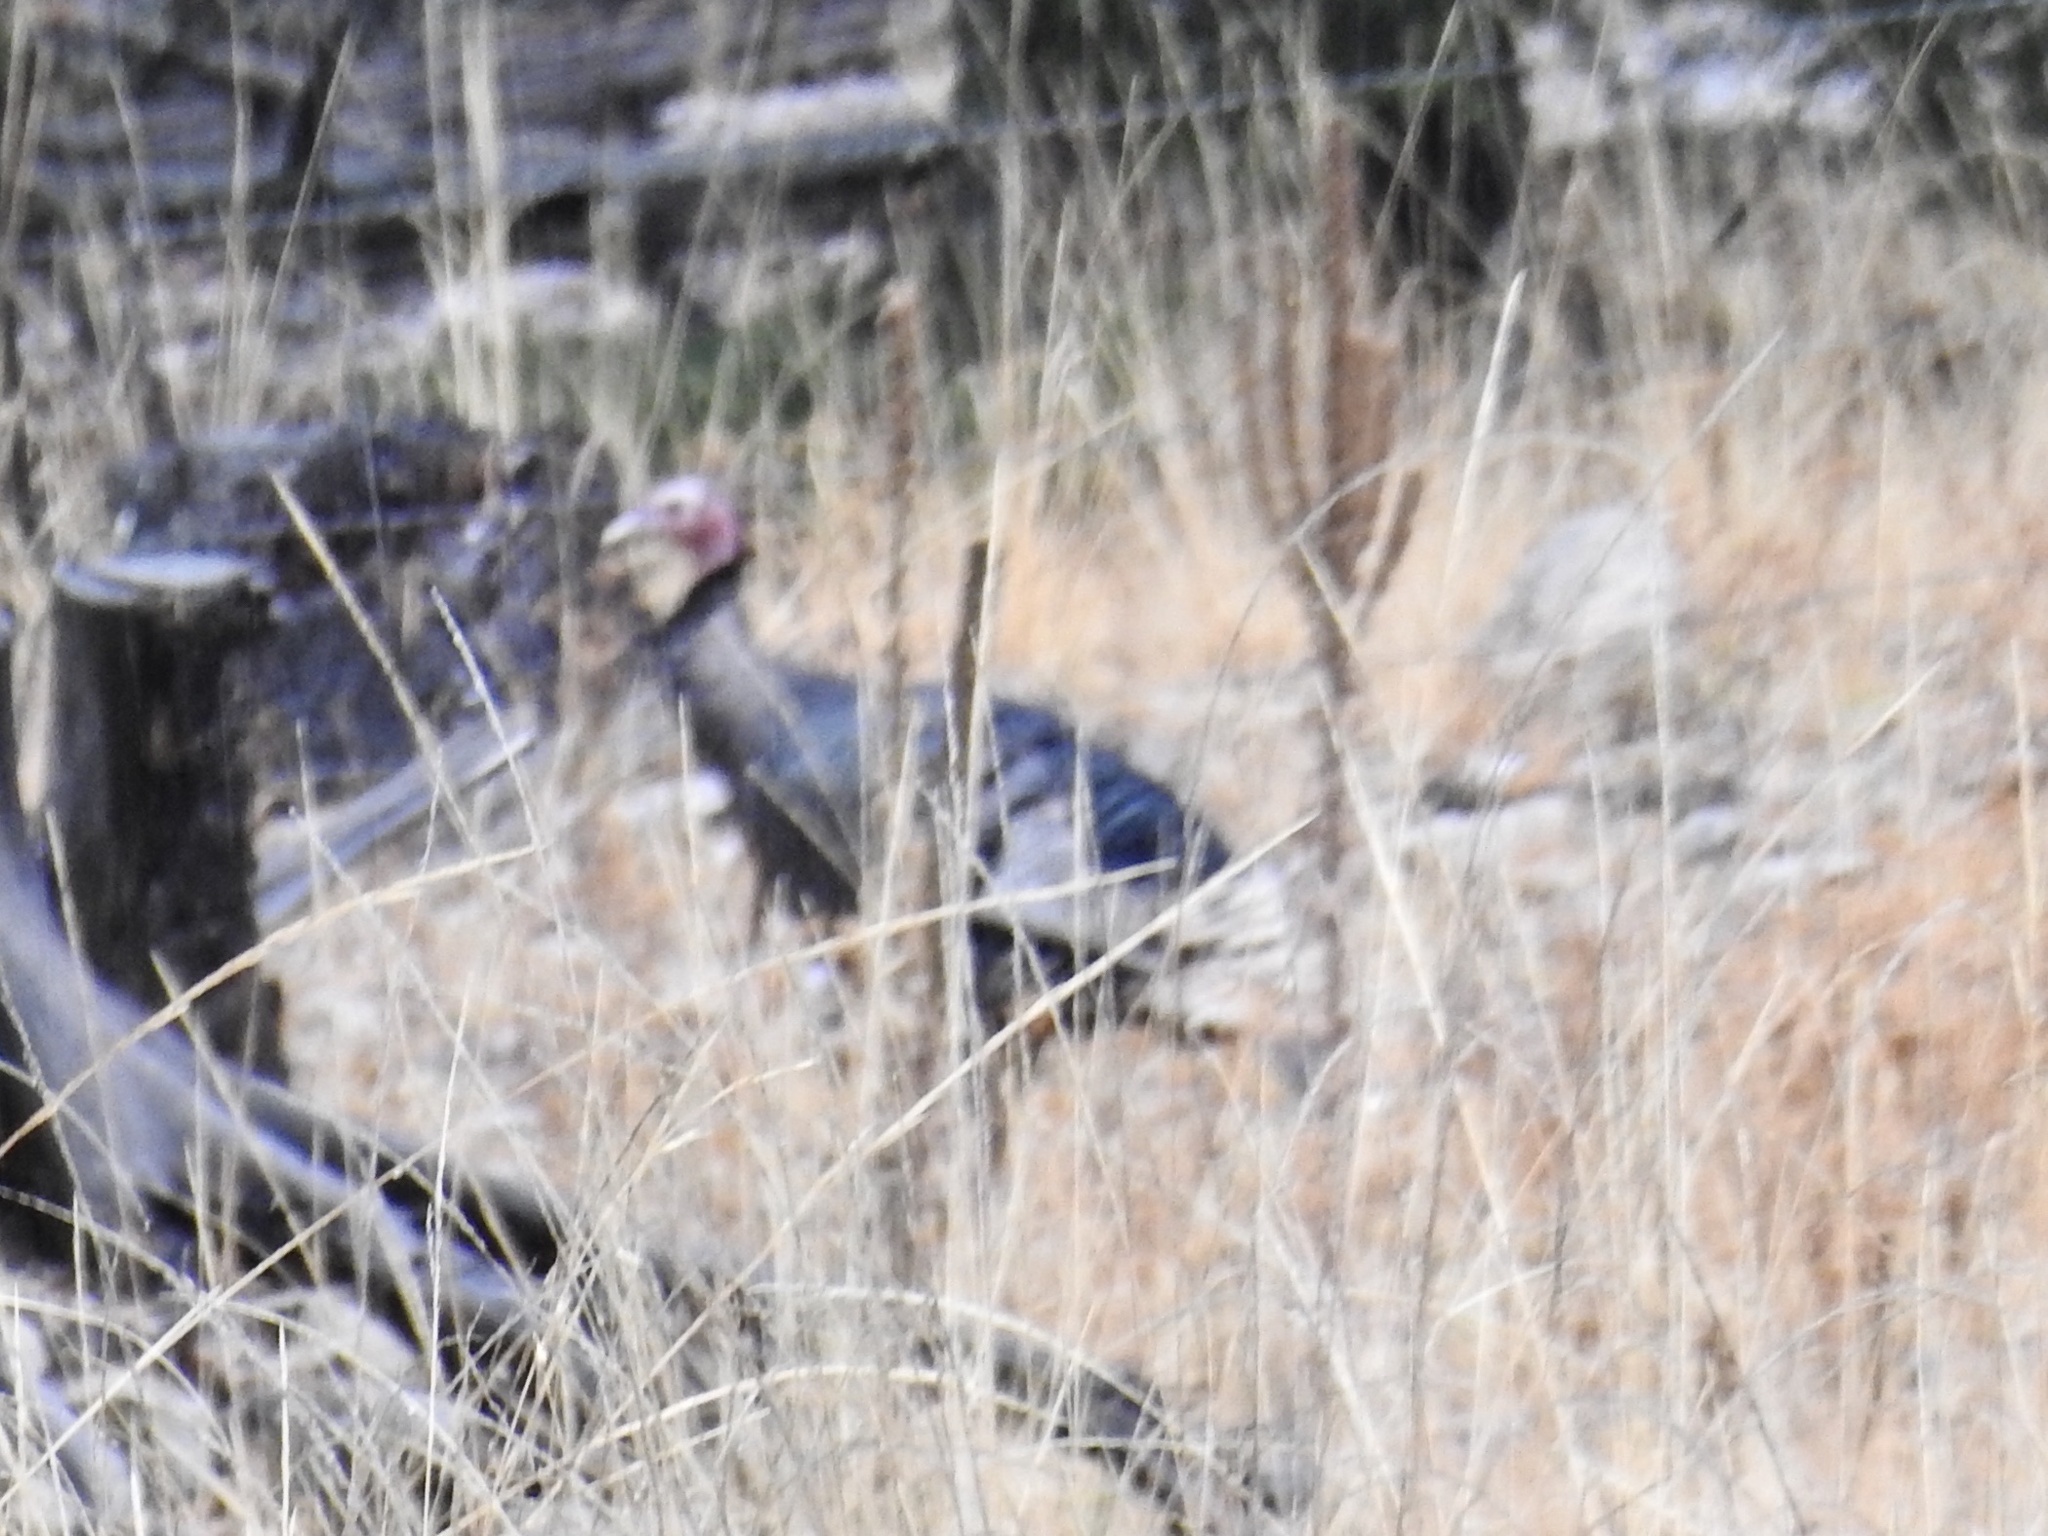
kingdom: Animalia
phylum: Chordata
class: Aves
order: Galliformes
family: Phasianidae
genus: Meleagris
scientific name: Meleagris gallopavo
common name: Wild turkey
